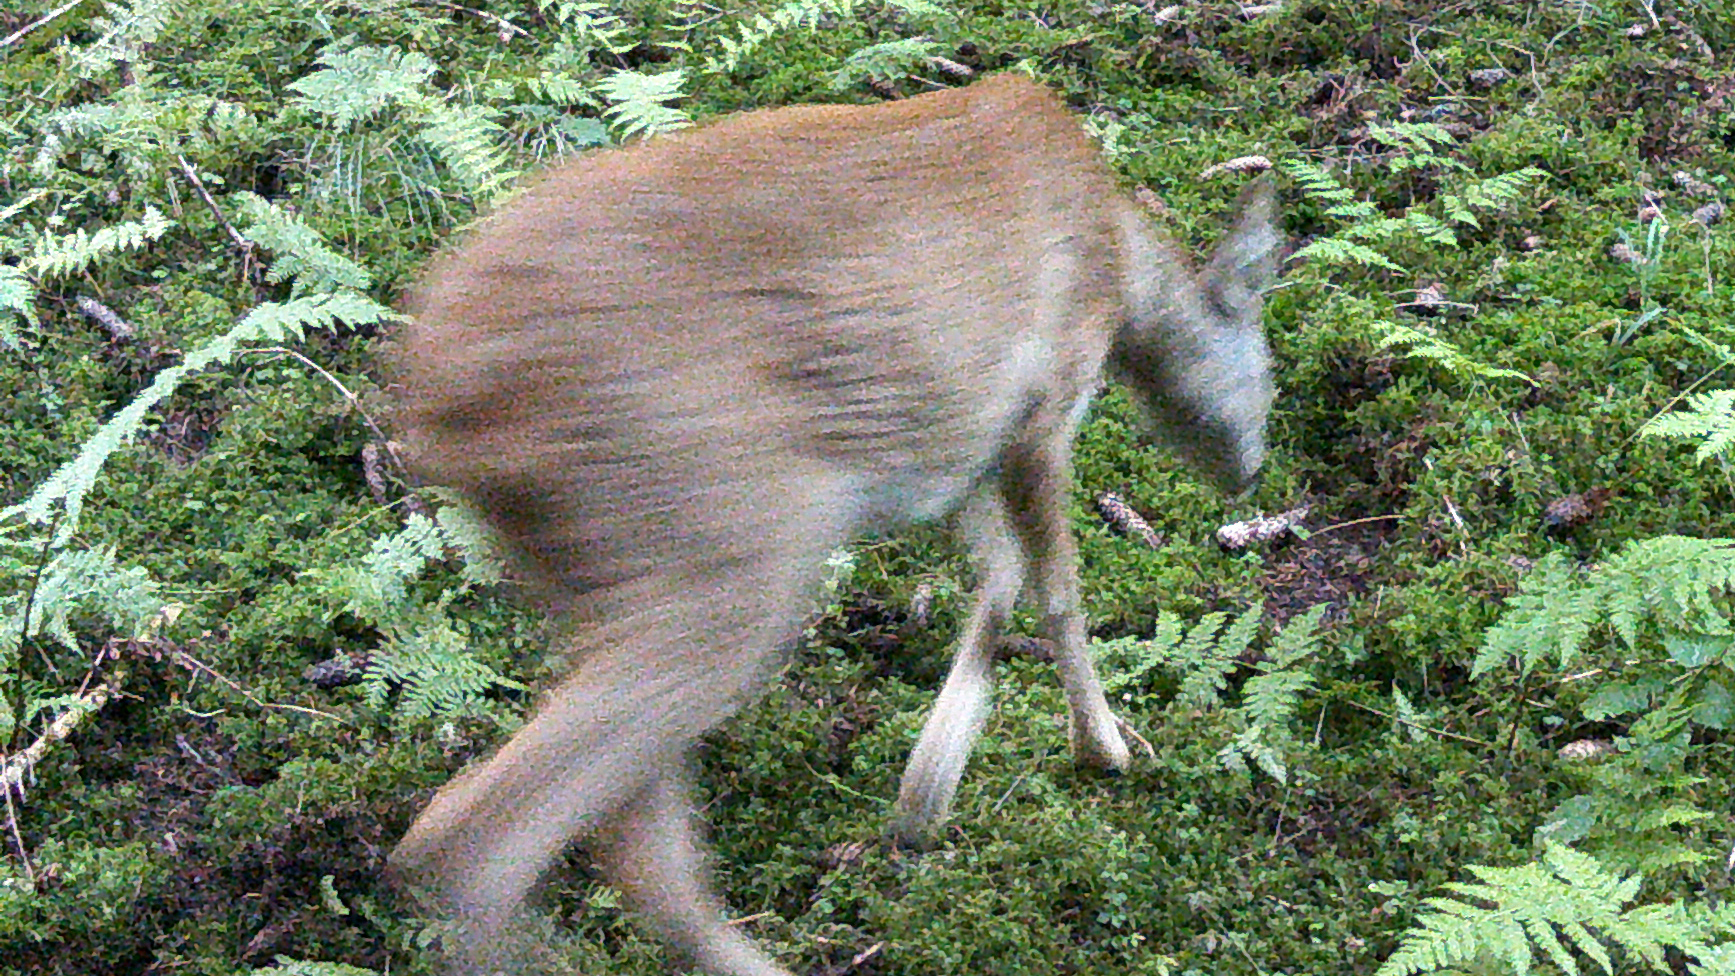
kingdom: Animalia
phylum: Chordata
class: Mammalia
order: Artiodactyla
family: Cervidae
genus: Capreolus
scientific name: Capreolus capreolus
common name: Western roe deer
